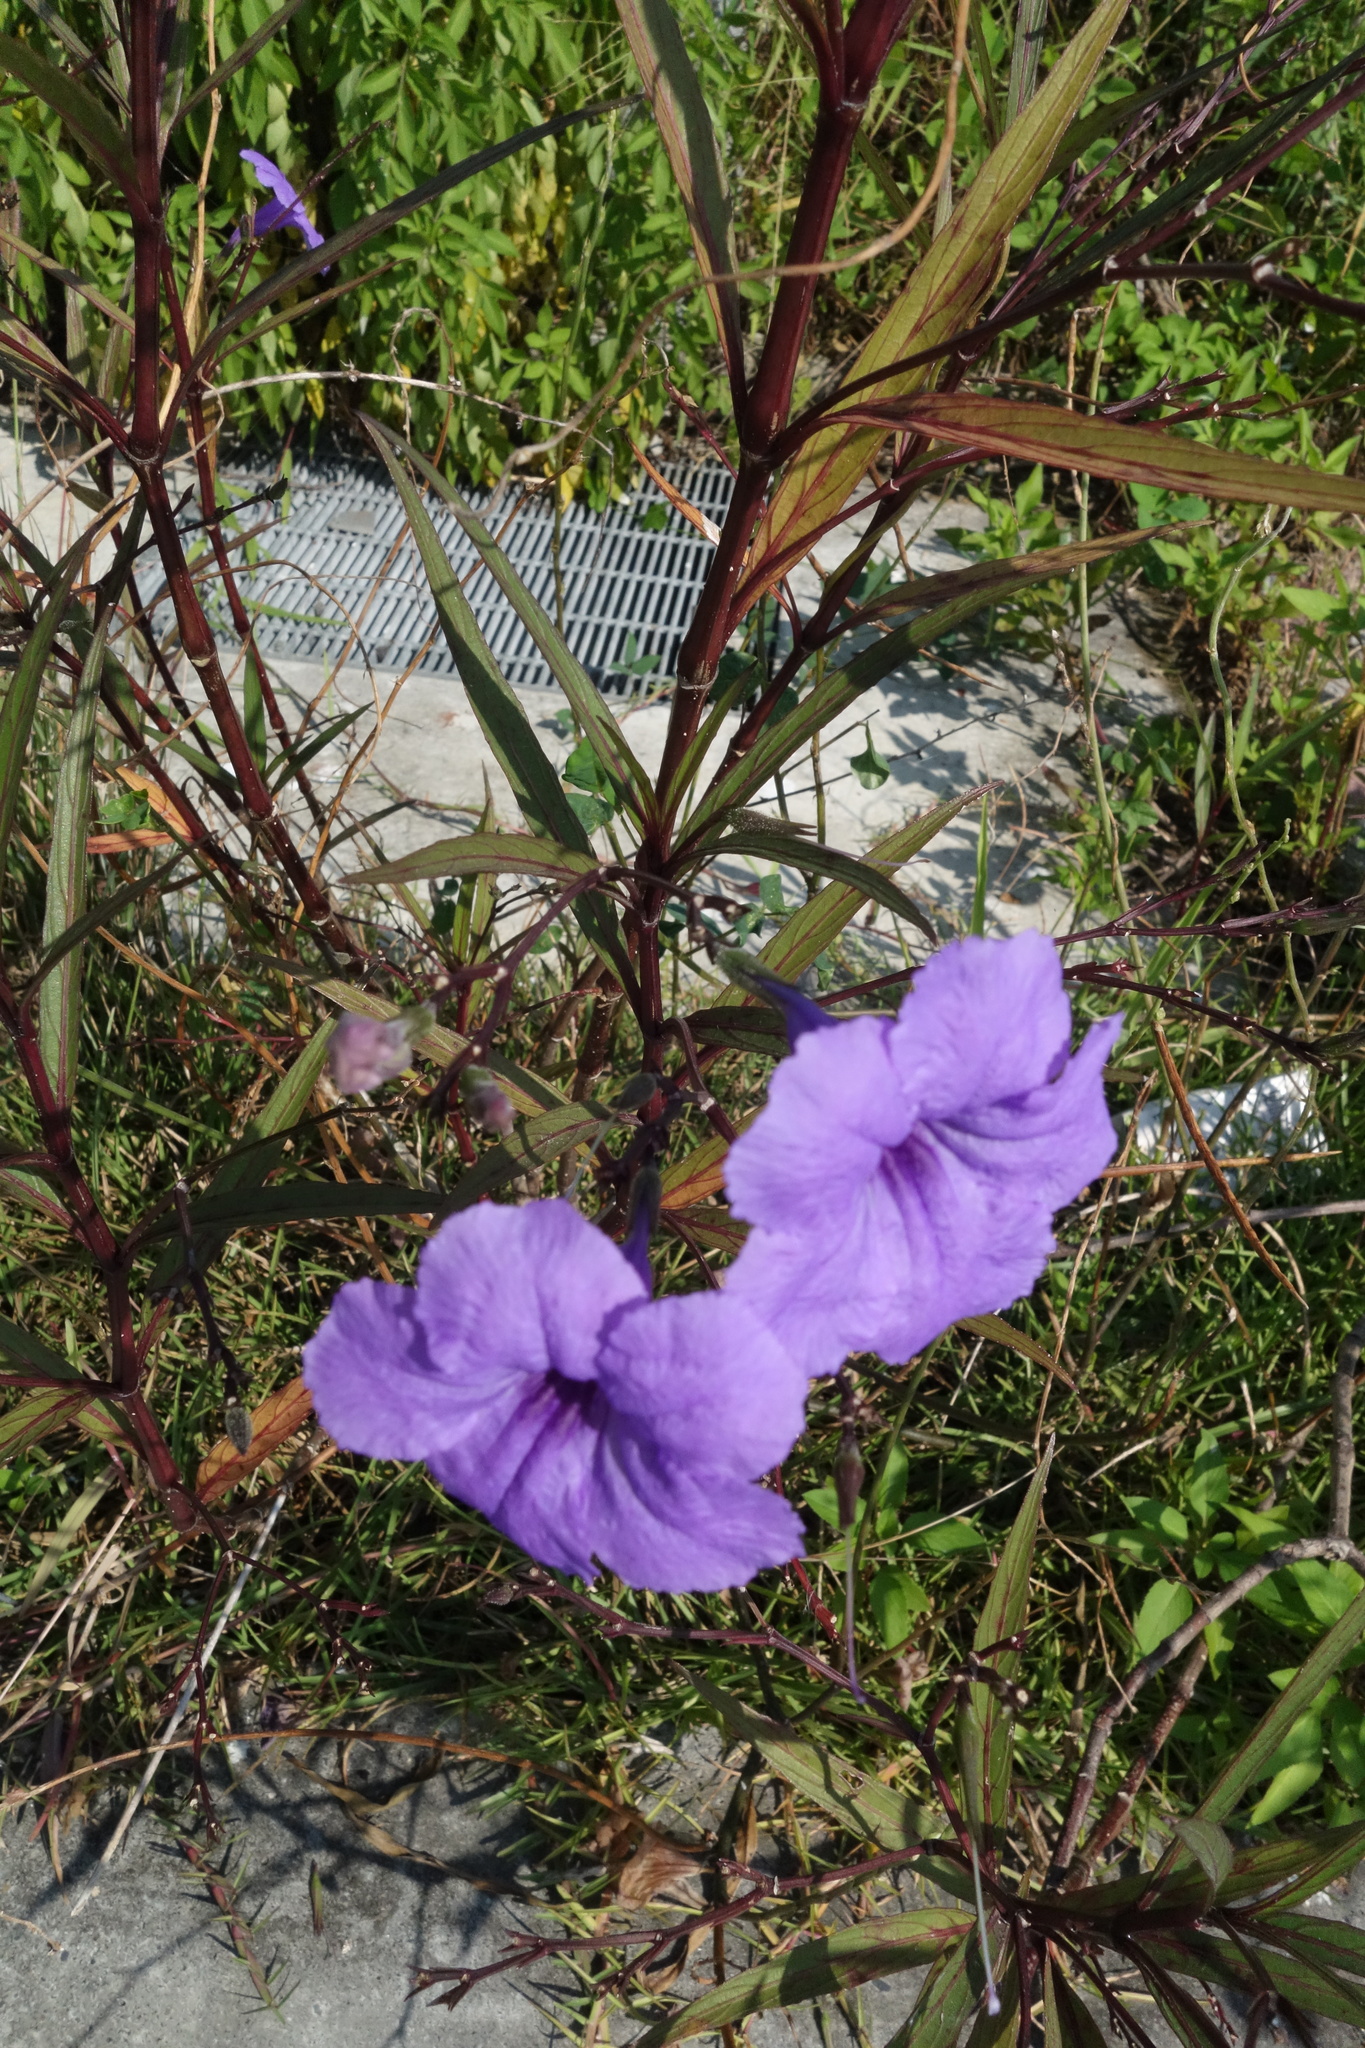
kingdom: Plantae
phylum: Tracheophyta
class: Magnoliopsida
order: Lamiales
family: Acanthaceae
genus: Ruellia
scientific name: Ruellia simplex
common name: Softseed wild petunia
